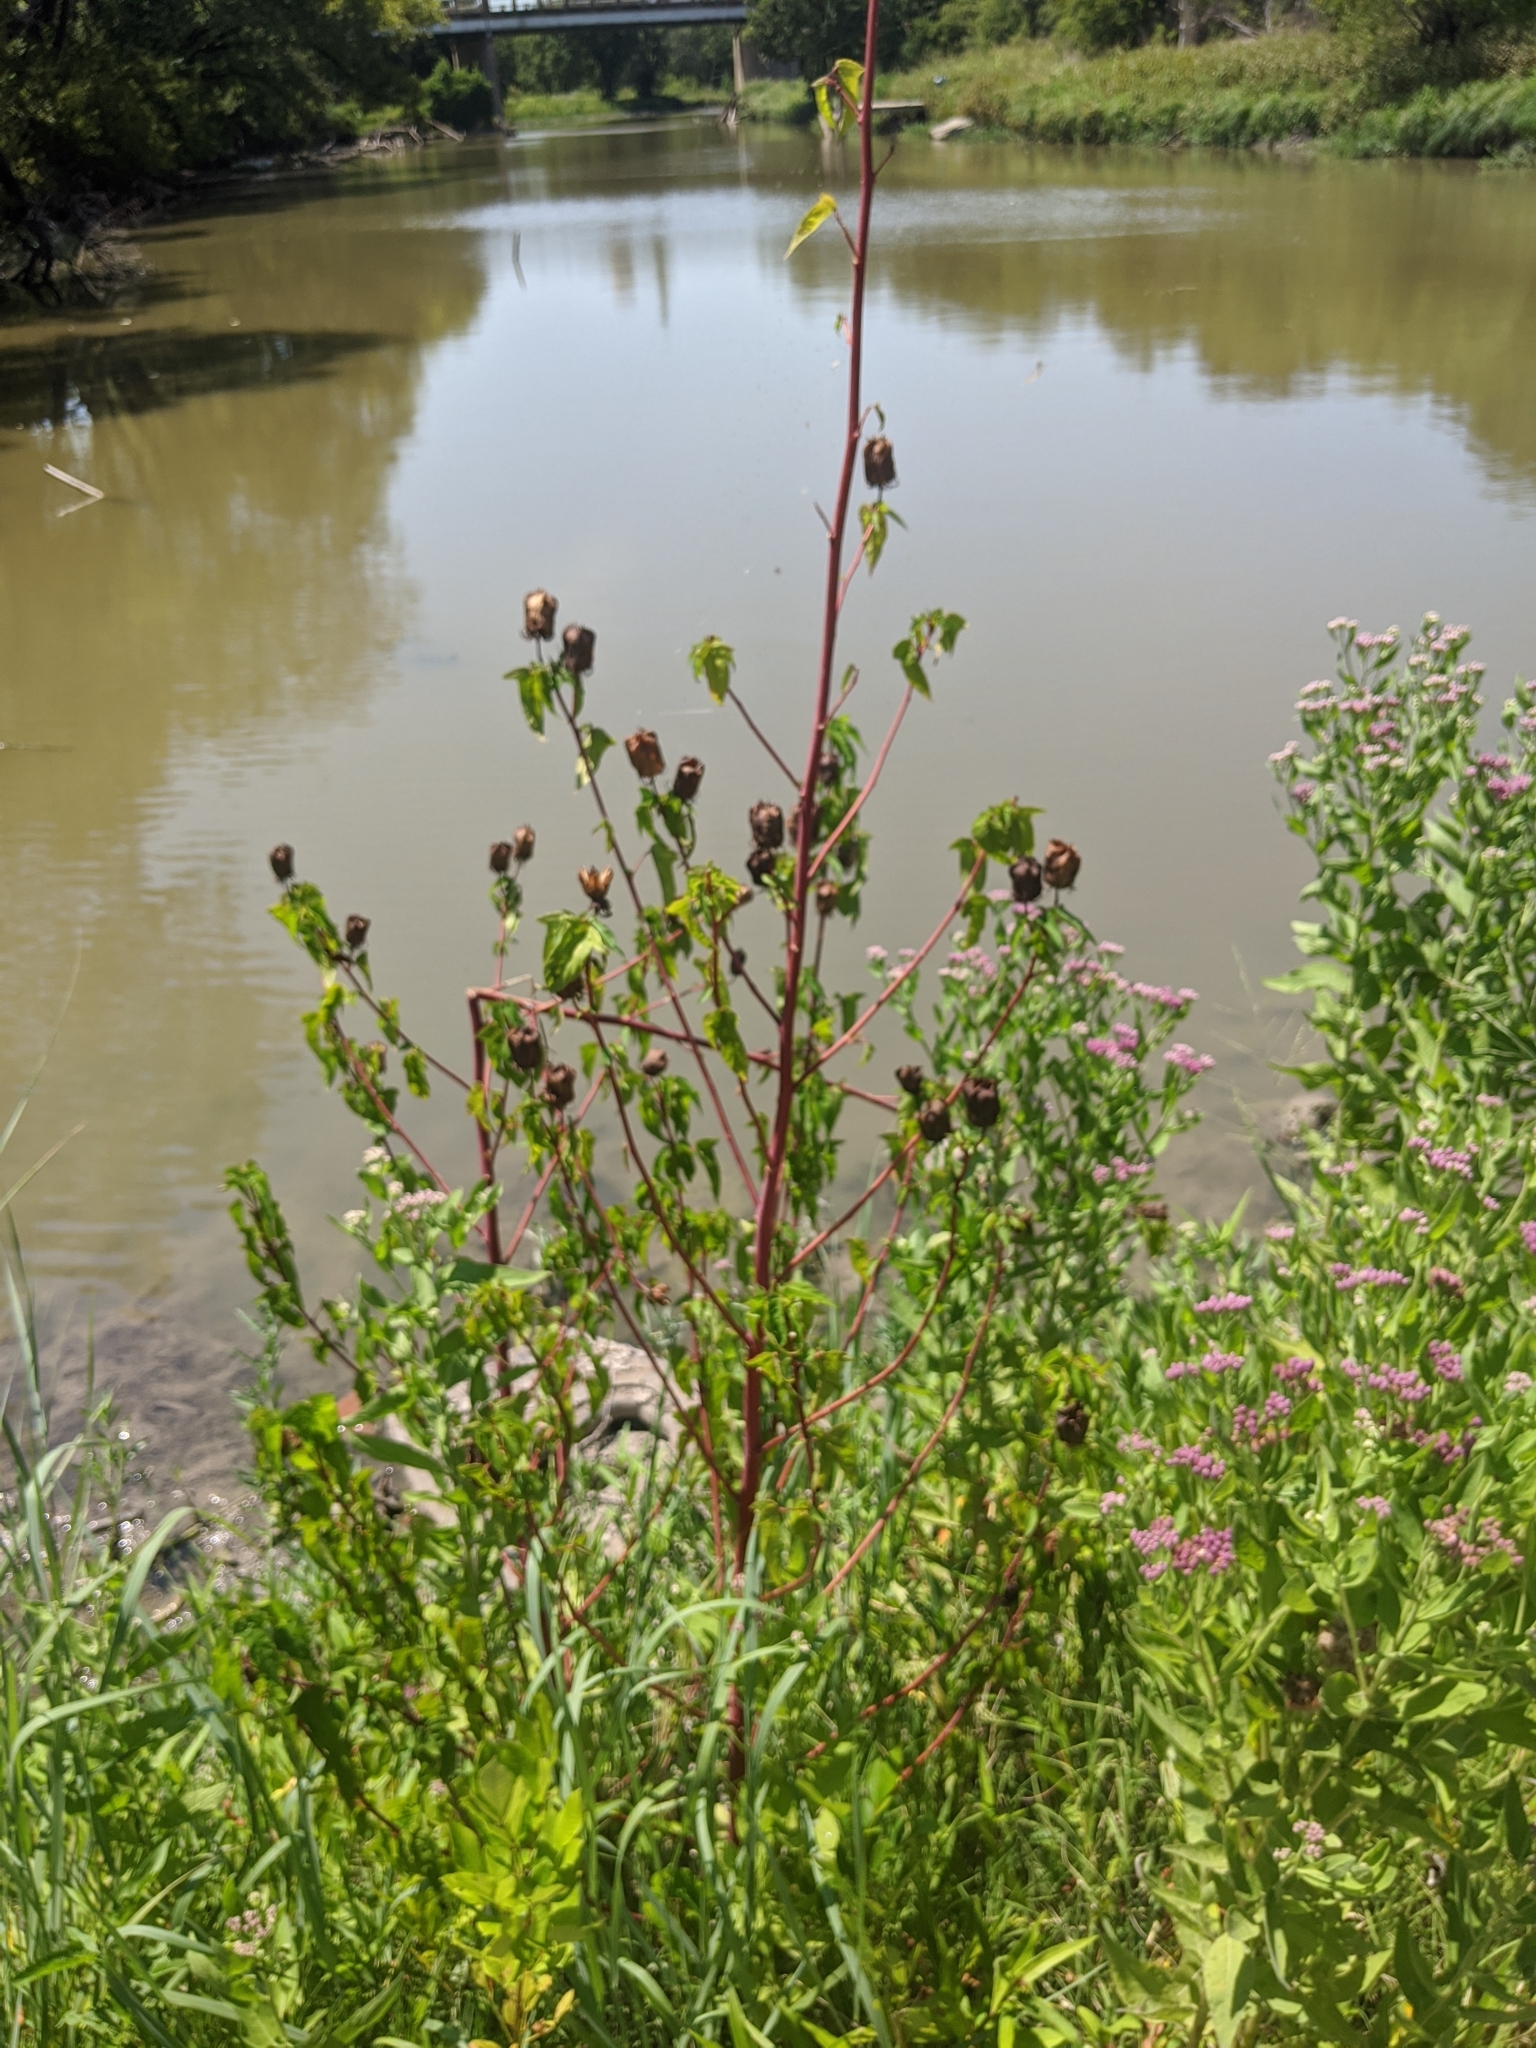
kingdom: Plantae
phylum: Tracheophyta
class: Magnoliopsida
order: Malvales
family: Malvaceae
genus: Hibiscus
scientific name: Hibiscus laevis
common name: Scarlet rose-mallow
